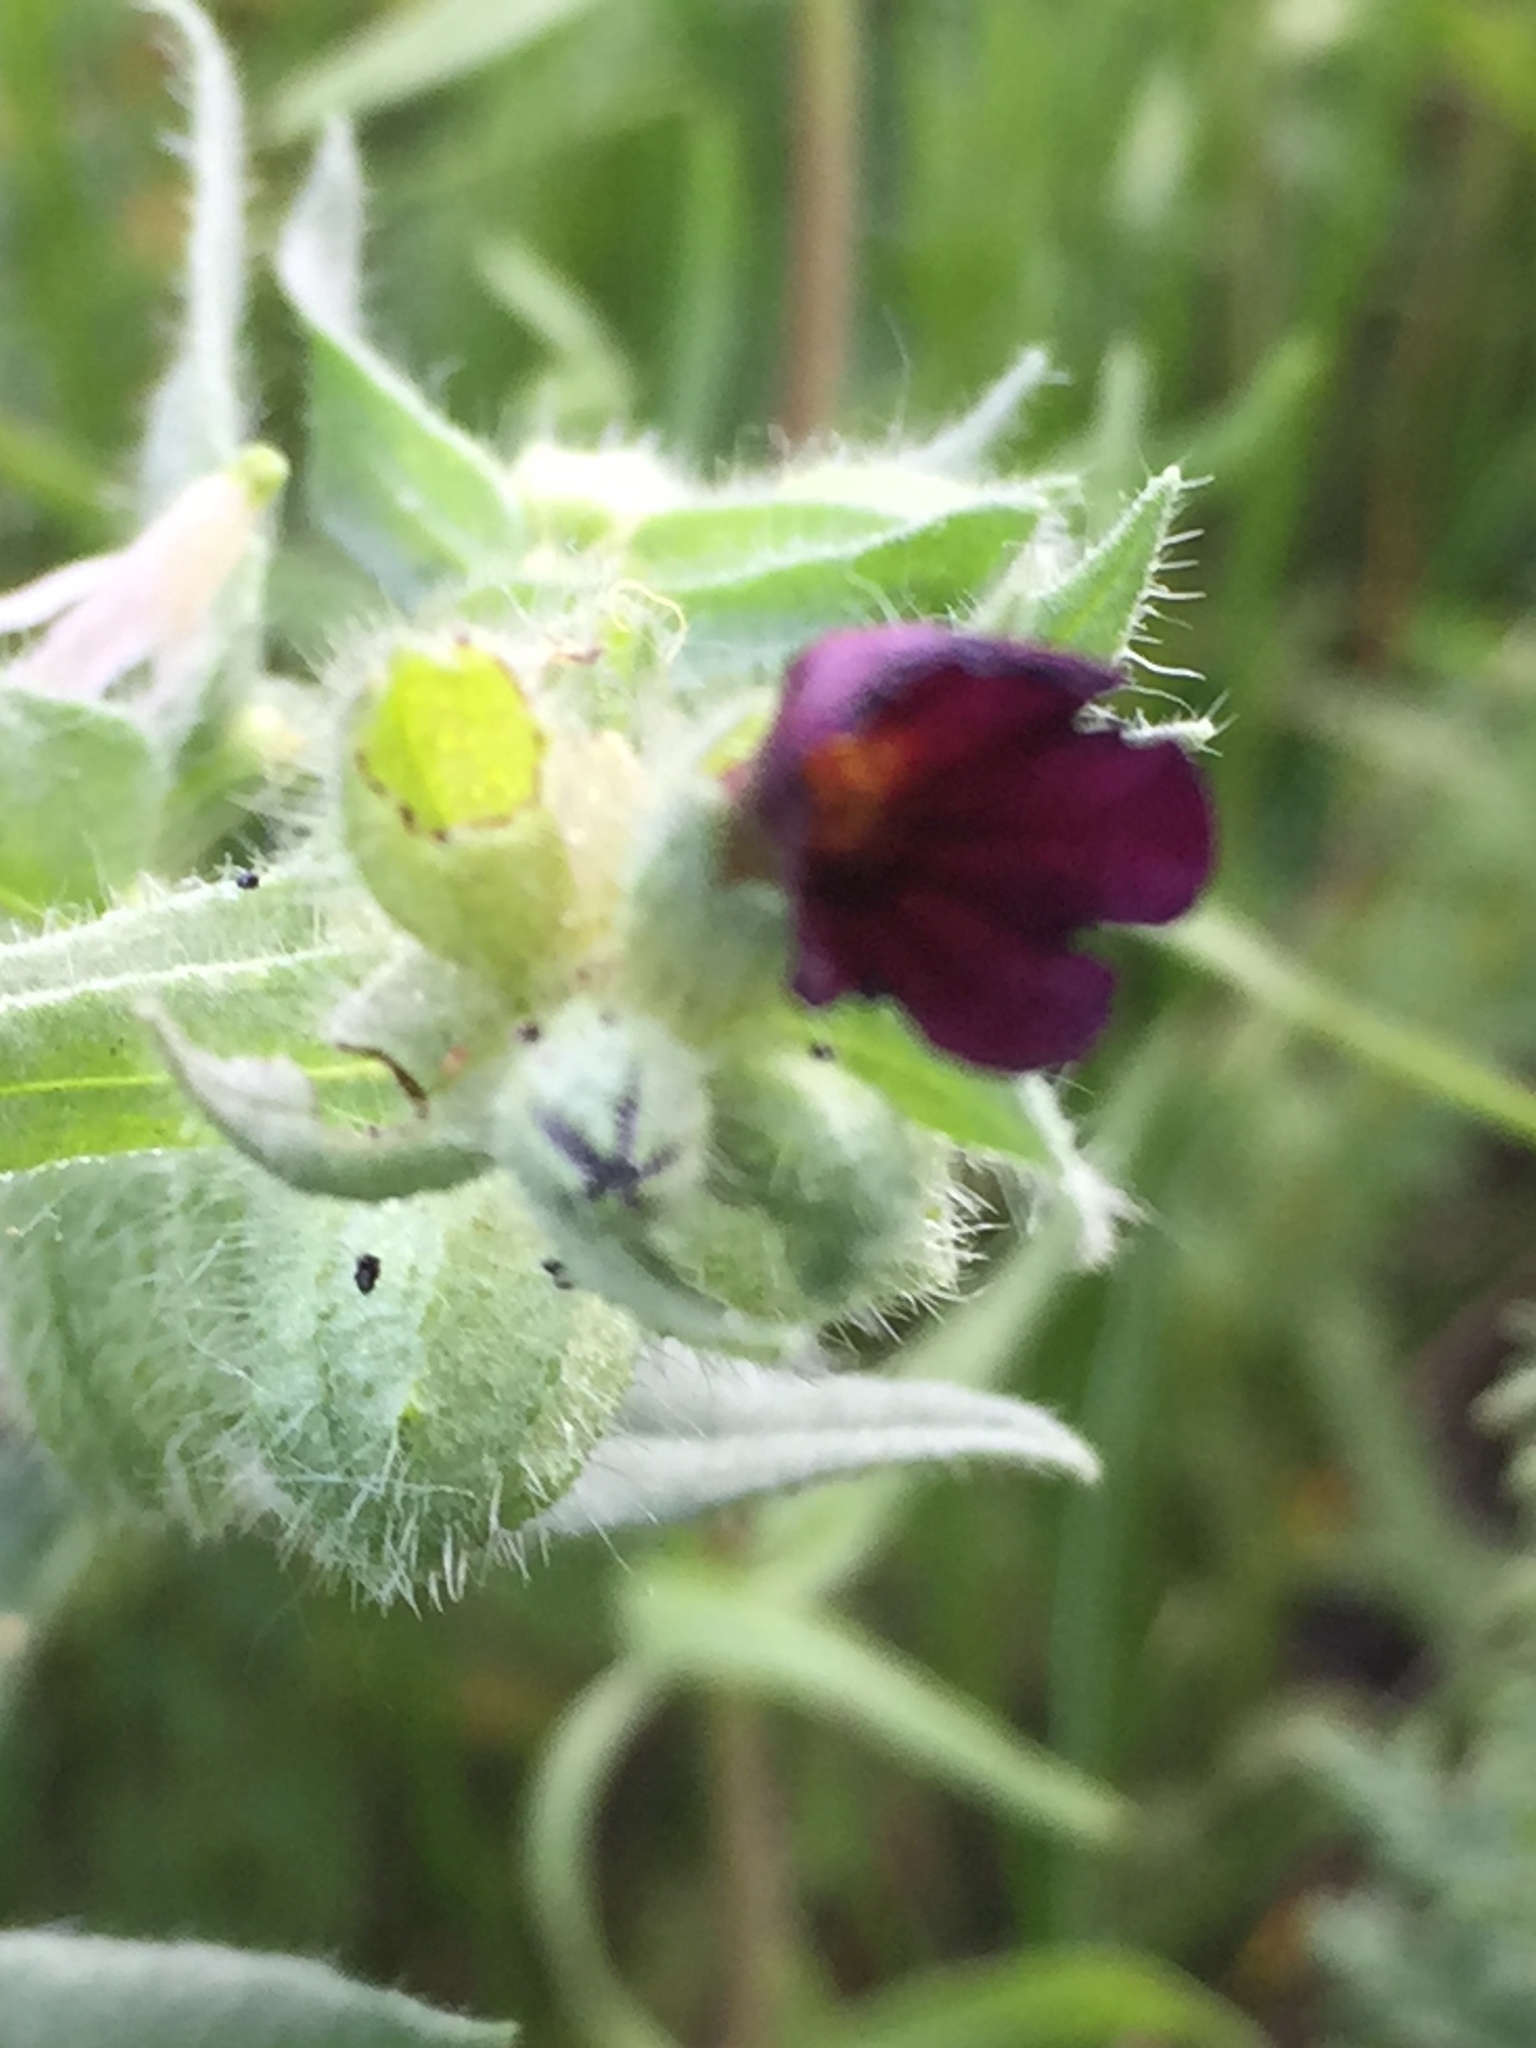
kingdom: Plantae
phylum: Tracheophyta
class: Magnoliopsida
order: Boraginales
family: Boraginaceae
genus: Nonea
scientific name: Nonea pulla
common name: Brown nonea
